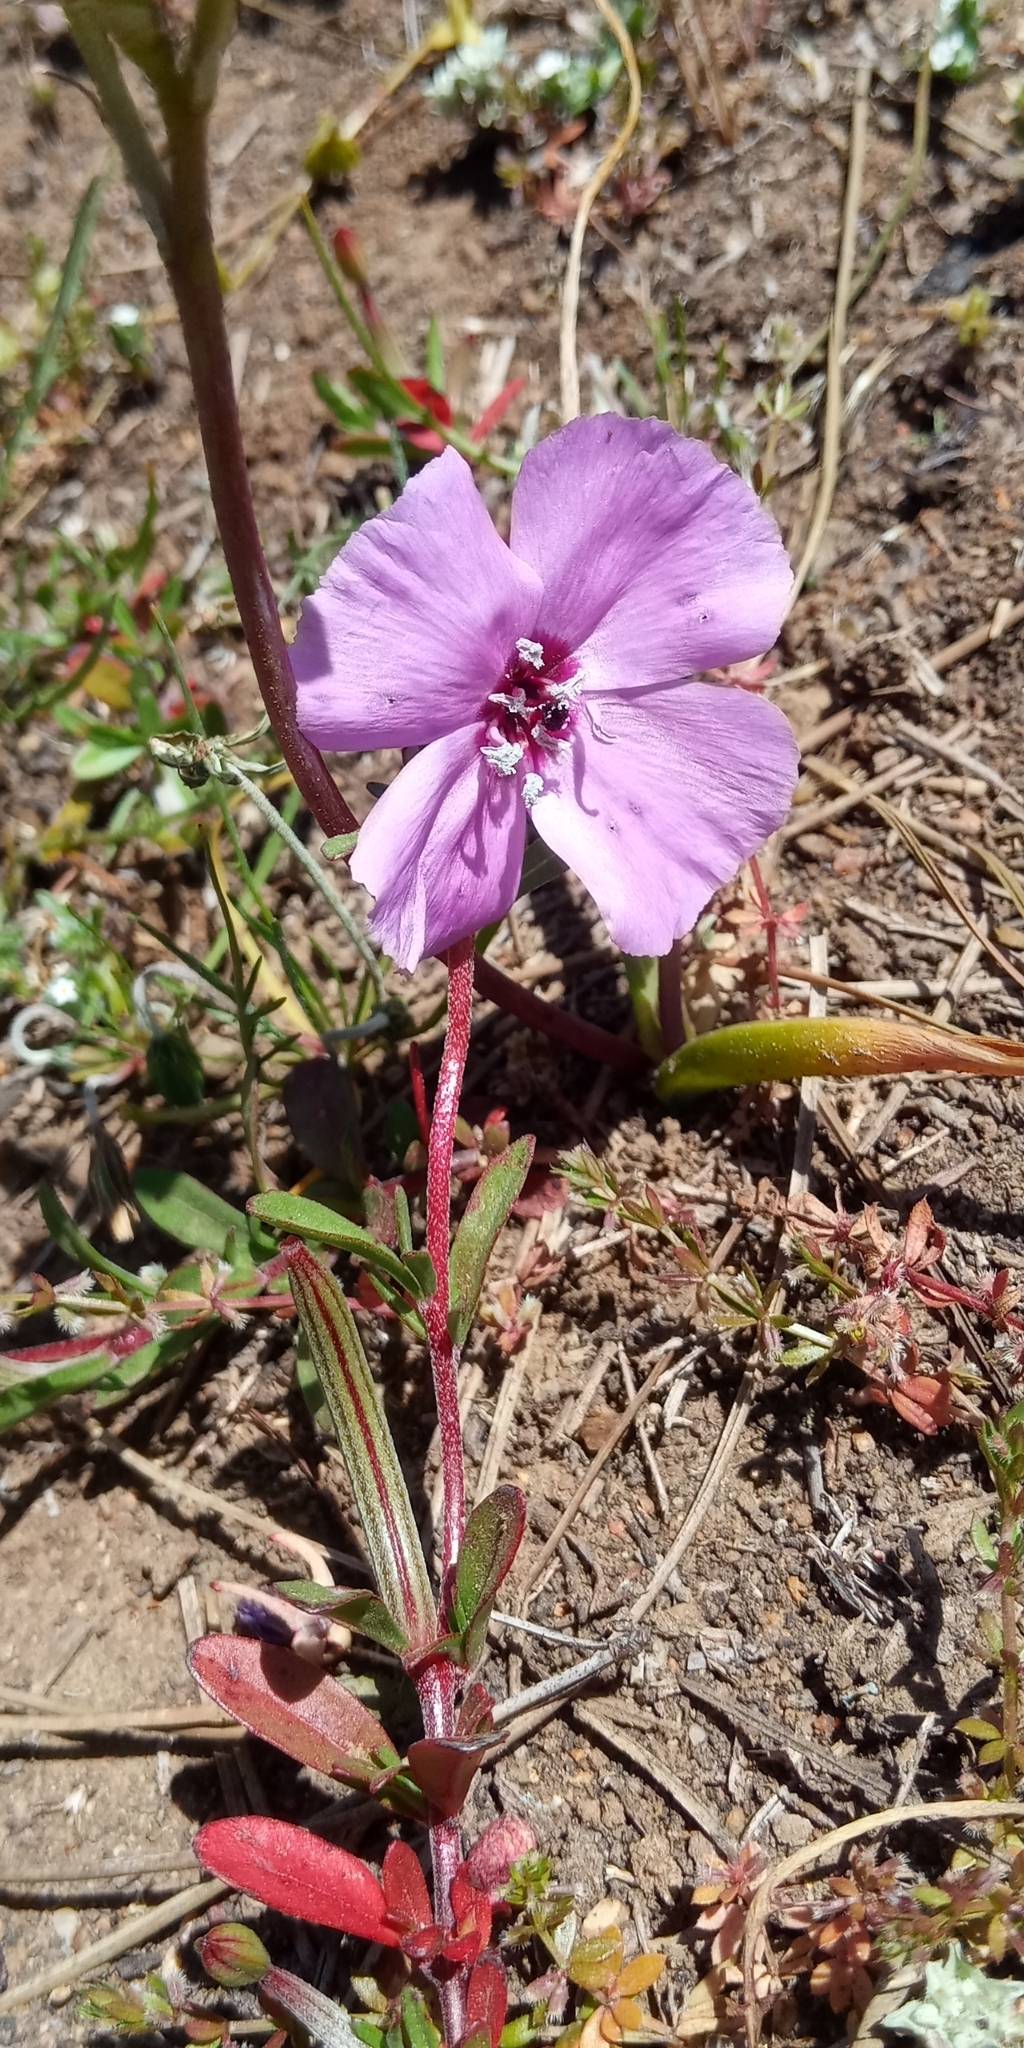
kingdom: Plantae
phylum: Tracheophyta
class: Magnoliopsida
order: Myrtales
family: Onagraceae
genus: Clarkia
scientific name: Clarkia tenella
